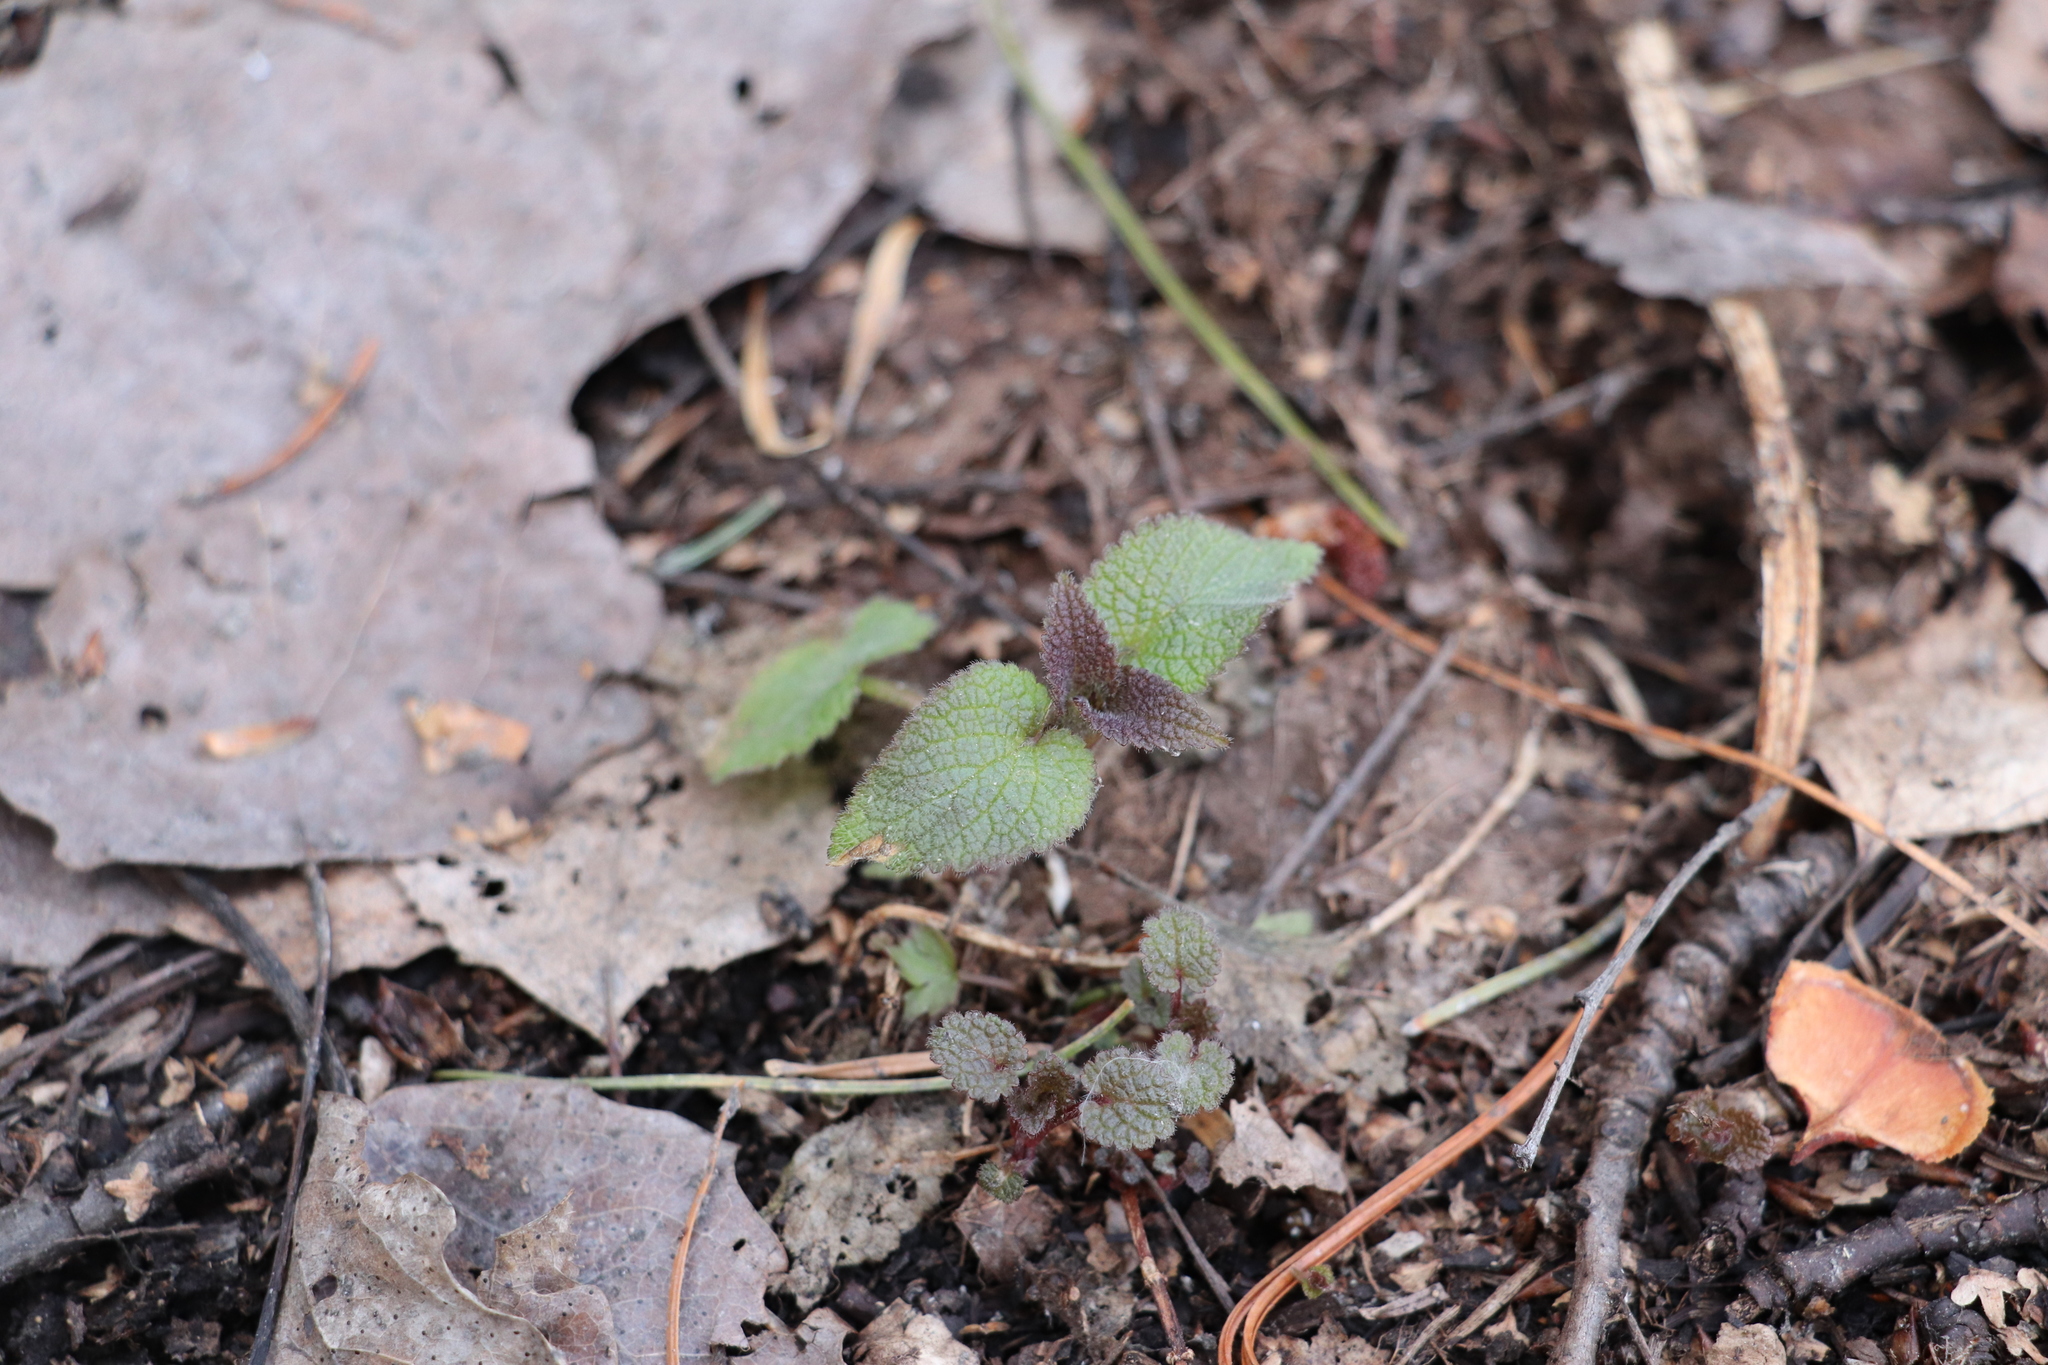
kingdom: Plantae
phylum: Tracheophyta
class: Magnoliopsida
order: Lamiales
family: Lamiaceae
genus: Lamium
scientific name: Lamium album
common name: White dead-nettle
